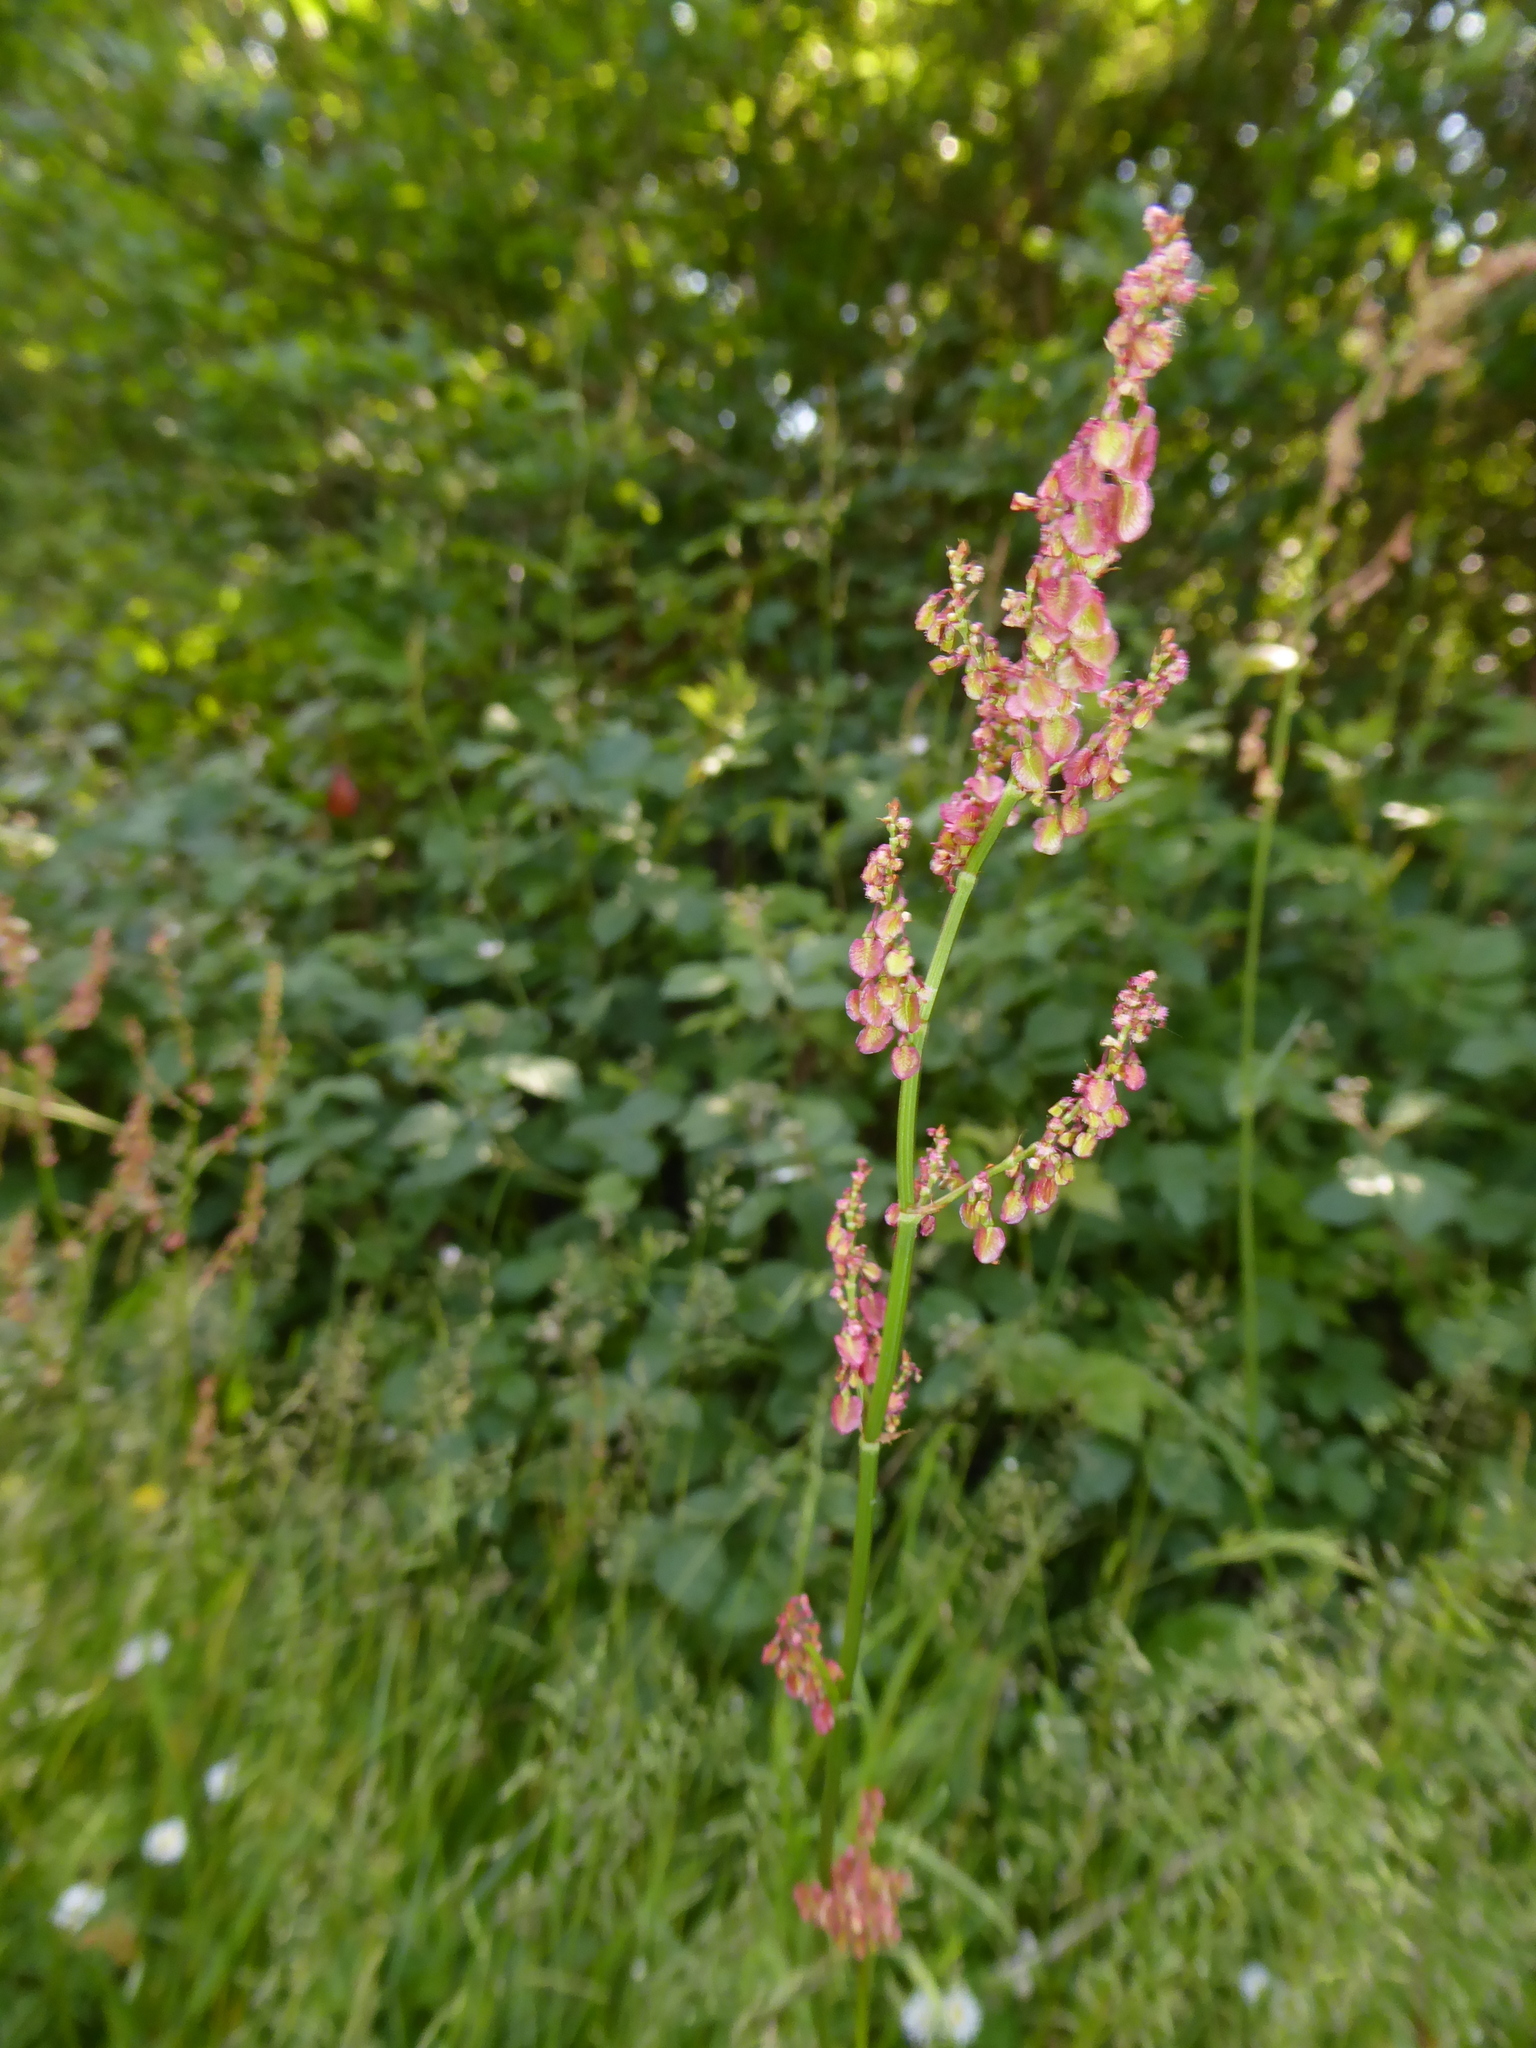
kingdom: Plantae
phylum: Tracheophyta
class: Magnoliopsida
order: Caryophyllales
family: Polygonaceae
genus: Rumex
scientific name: Rumex acetosa
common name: Garden sorrel
